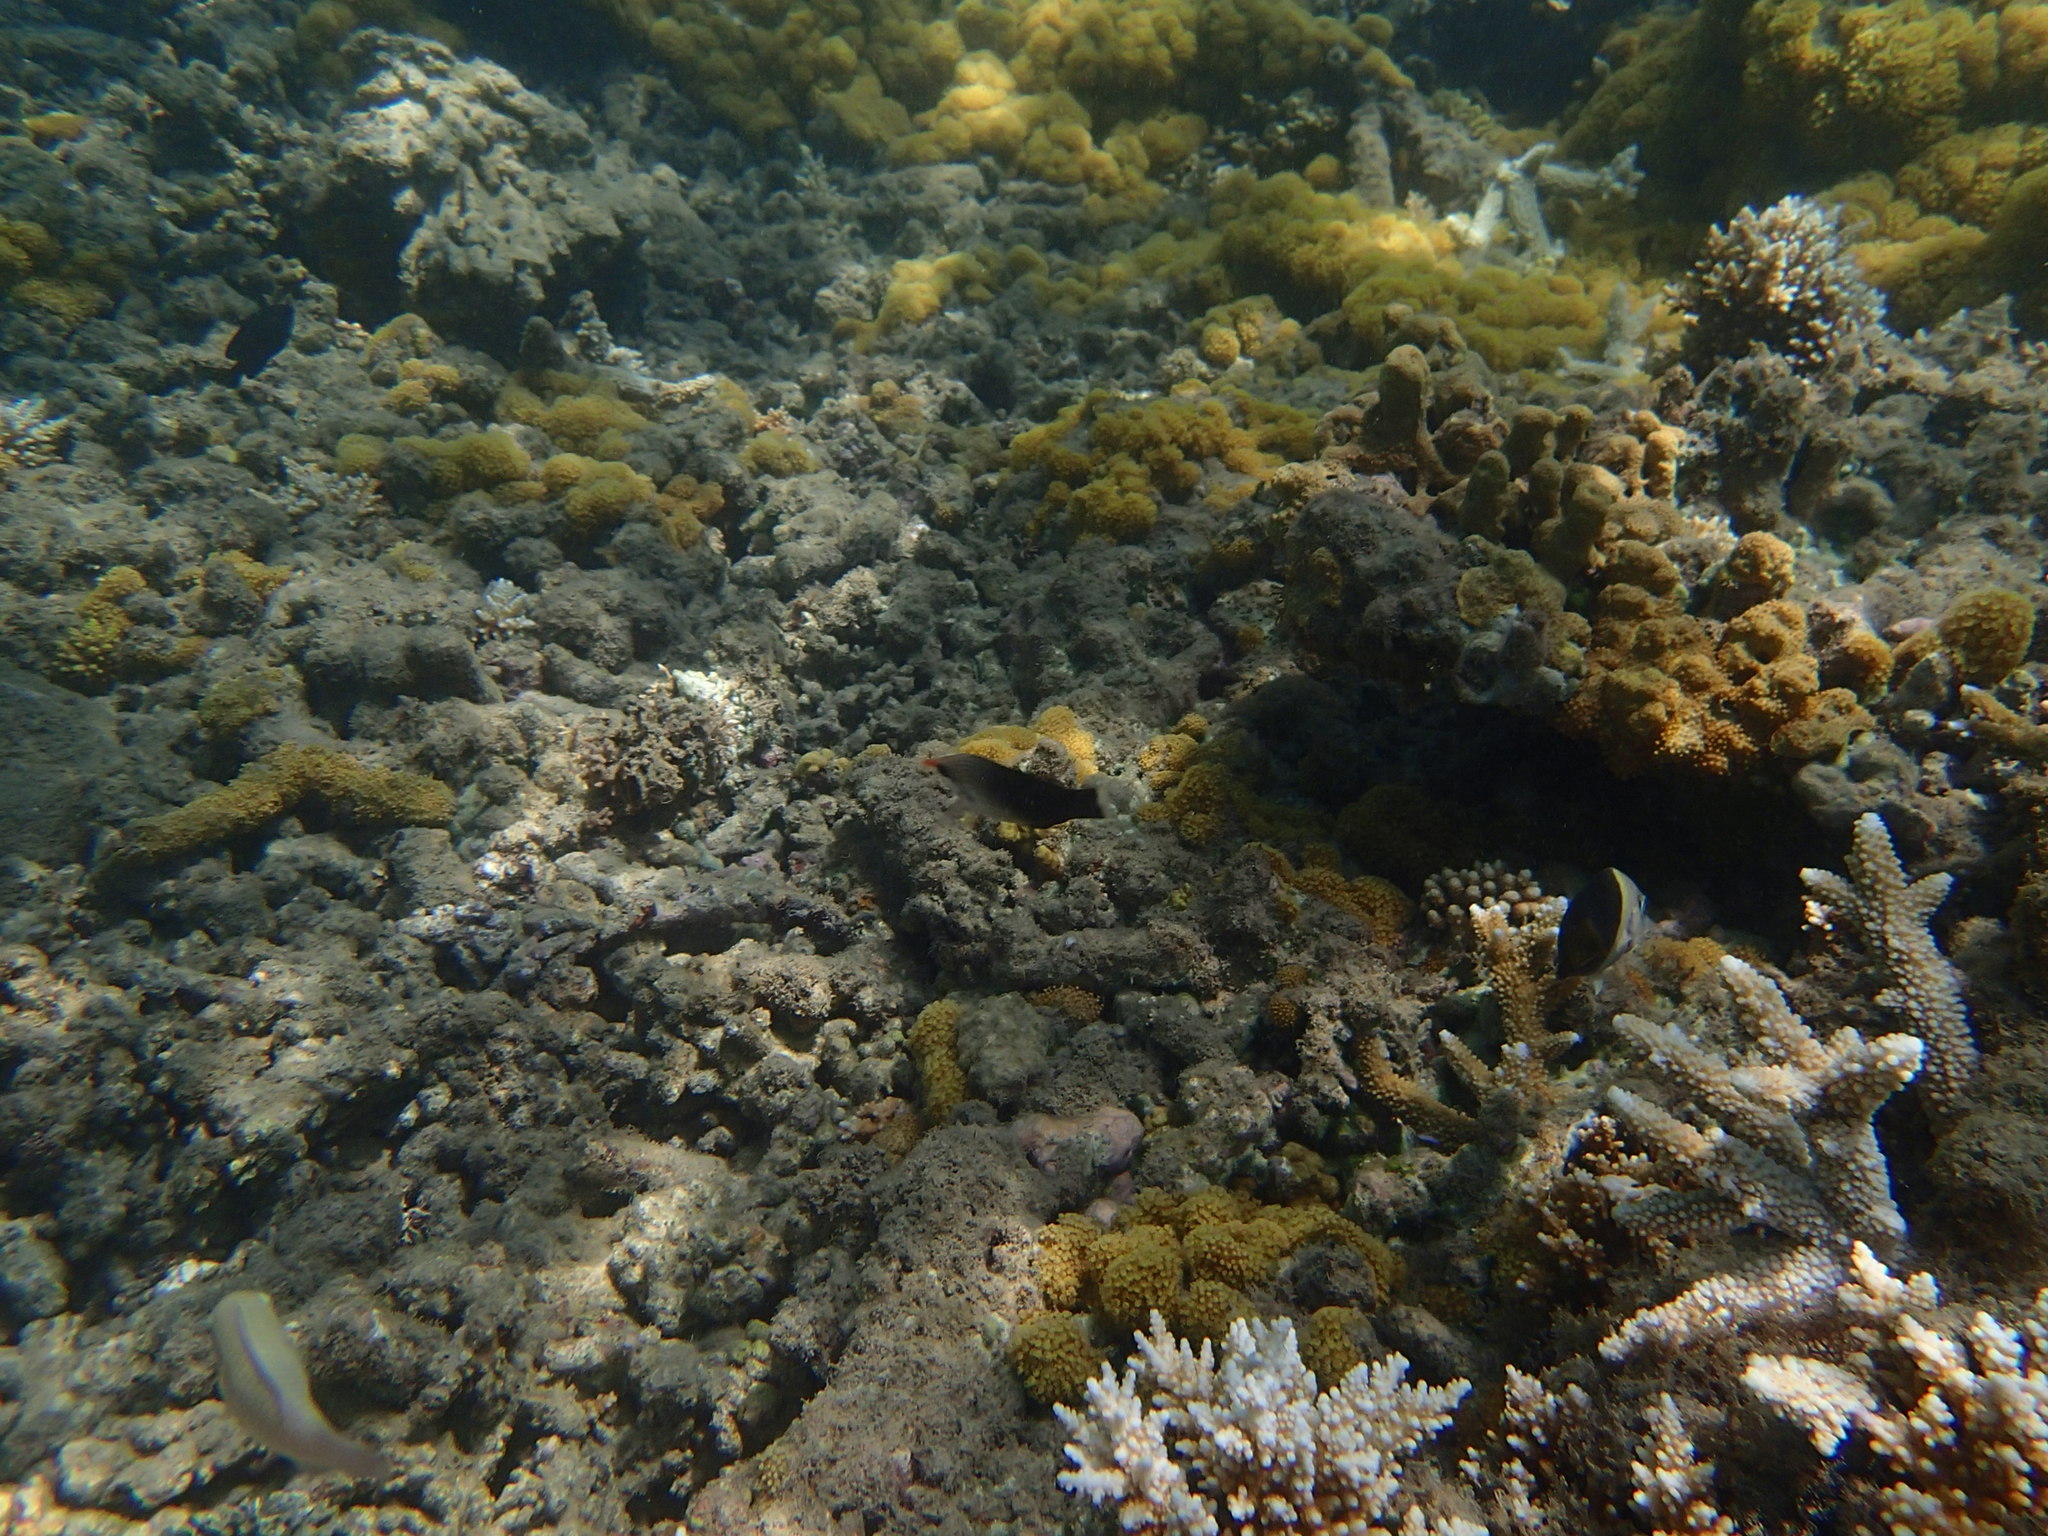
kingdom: Animalia
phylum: Chordata
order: Perciformes
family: Labridae
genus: Gomphosus
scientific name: Gomphosus varius
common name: Bird wrasse
